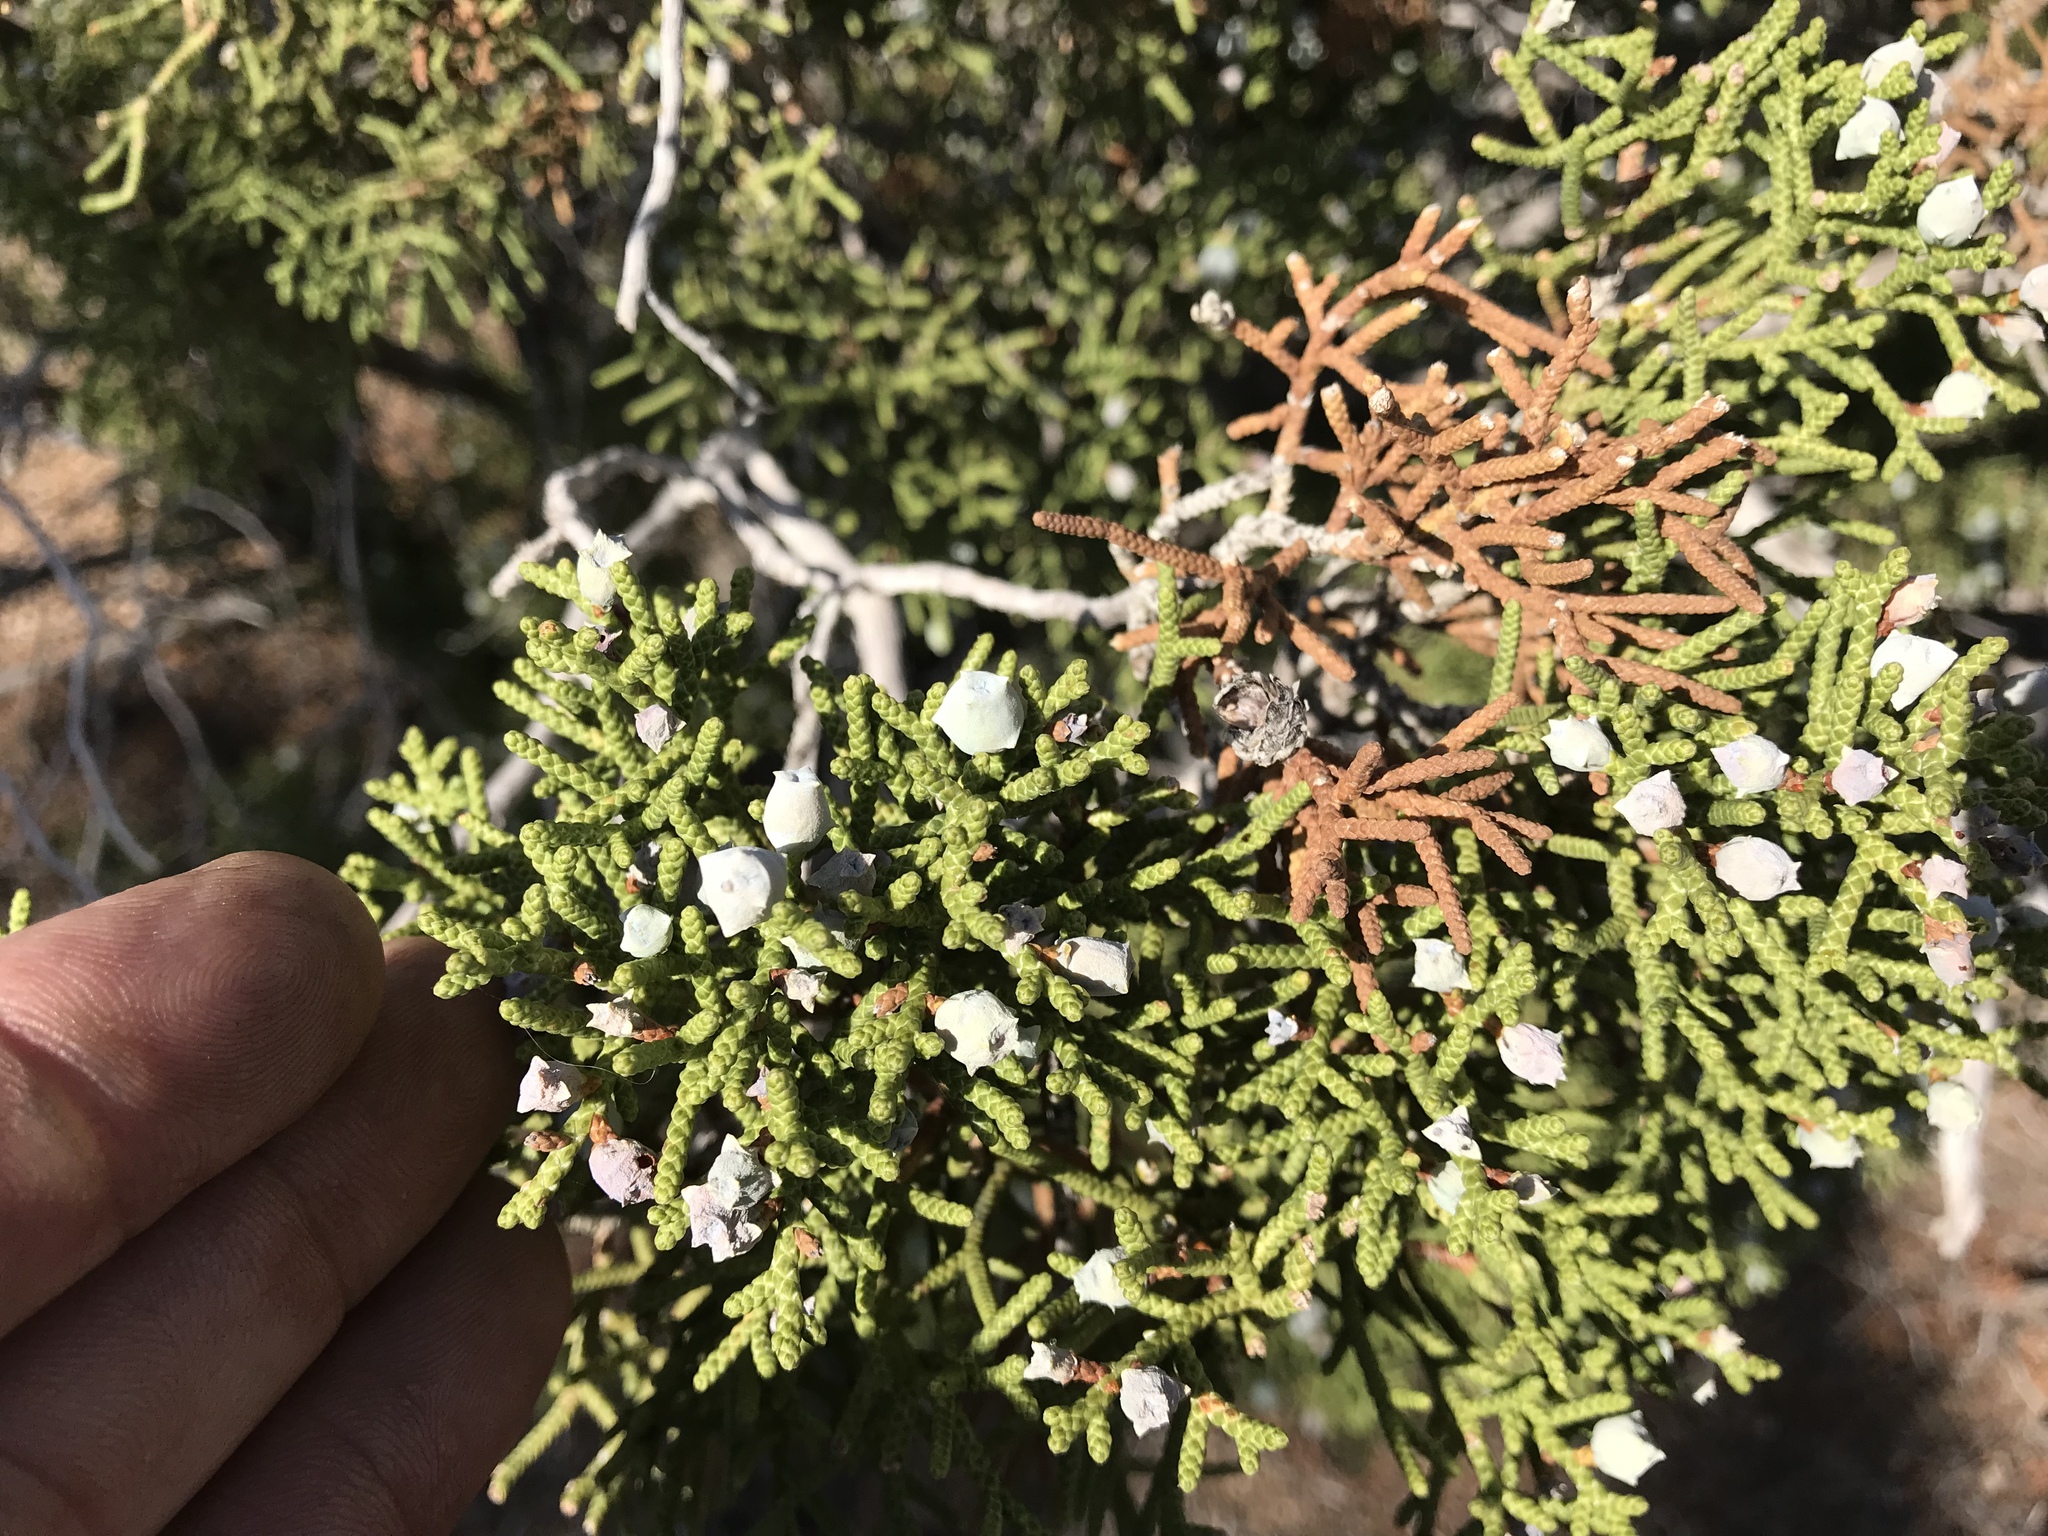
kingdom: Plantae
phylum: Tracheophyta
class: Pinopsida
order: Pinales
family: Cupressaceae
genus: Juniperus
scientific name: Juniperus californica
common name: California juniper
